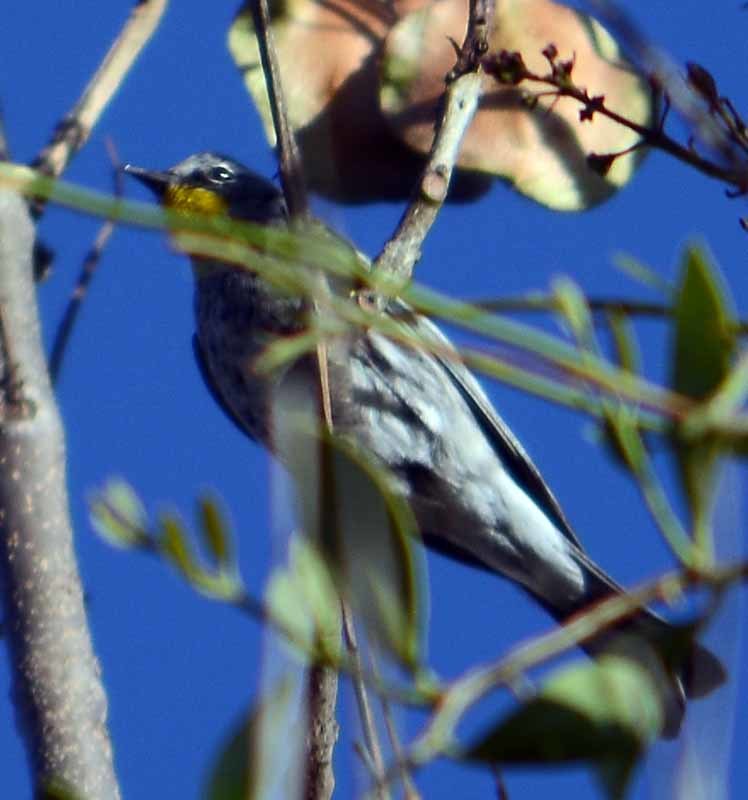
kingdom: Animalia
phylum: Chordata
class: Aves
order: Passeriformes
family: Parulidae
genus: Setophaga
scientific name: Setophaga coronata
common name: Myrtle warbler
